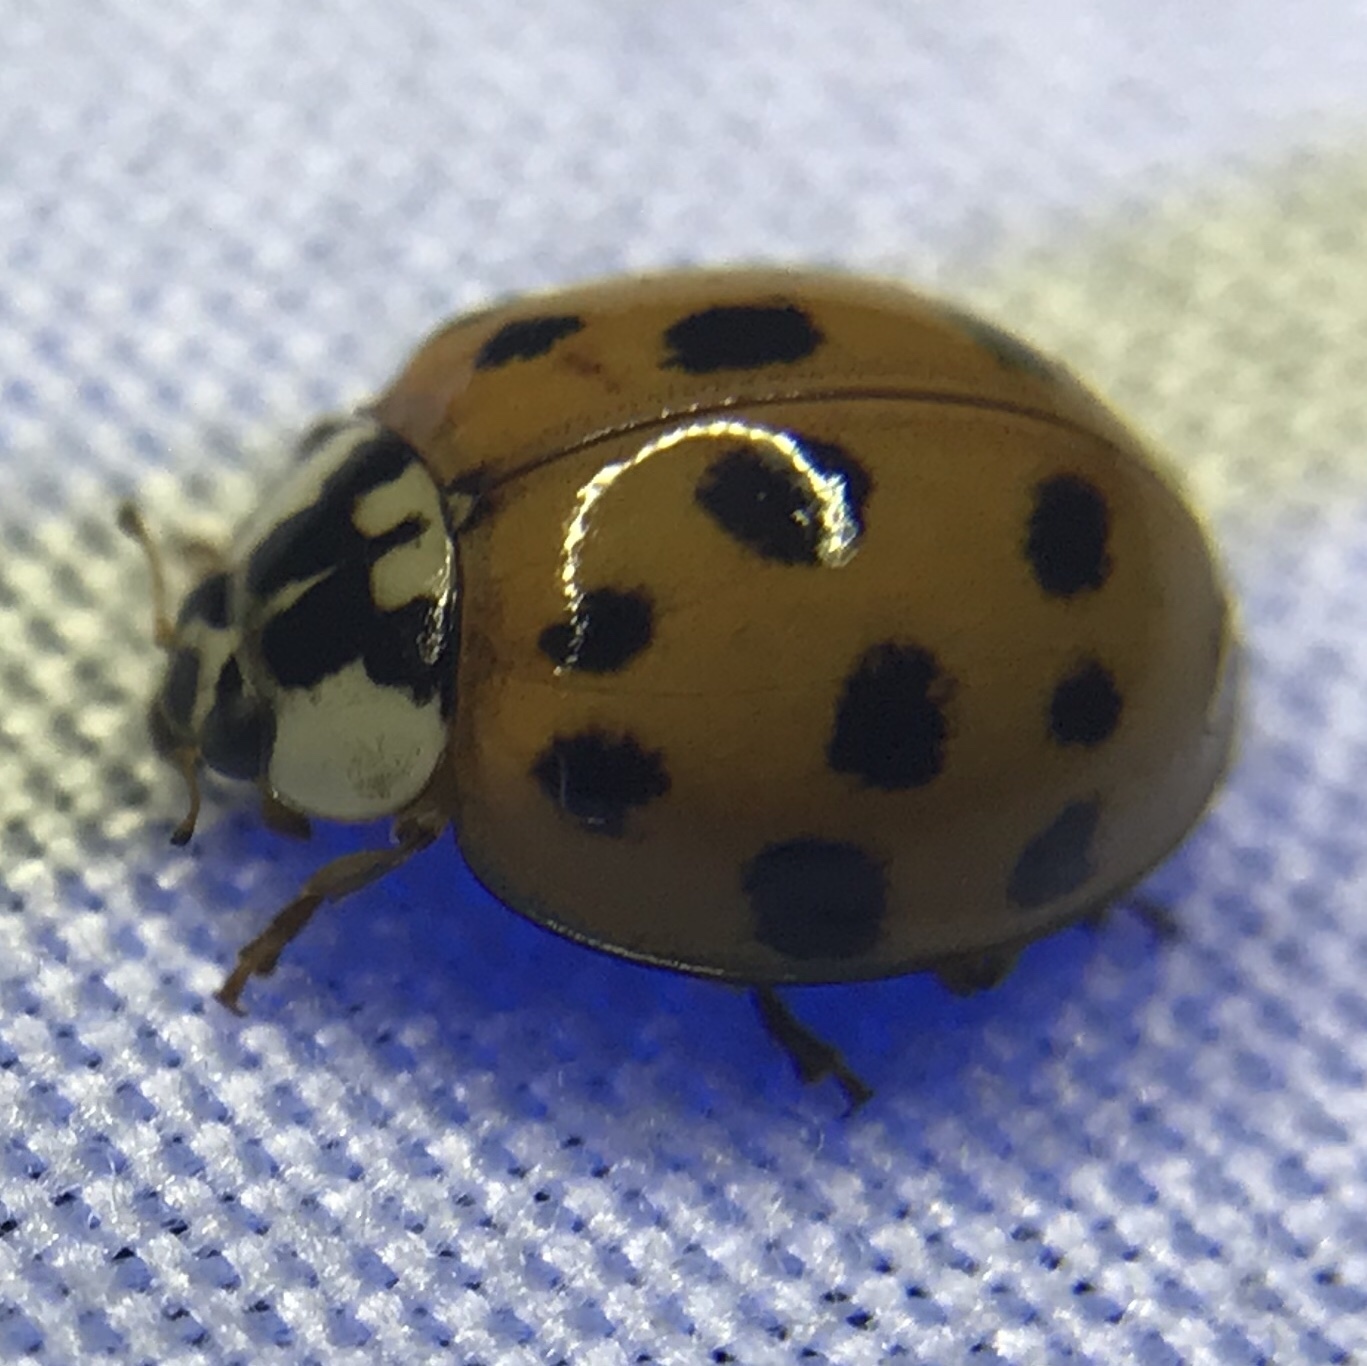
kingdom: Animalia
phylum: Arthropoda
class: Insecta
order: Coleoptera
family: Coccinellidae
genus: Harmonia
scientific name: Harmonia axyridis
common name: Harlequin ladybird
